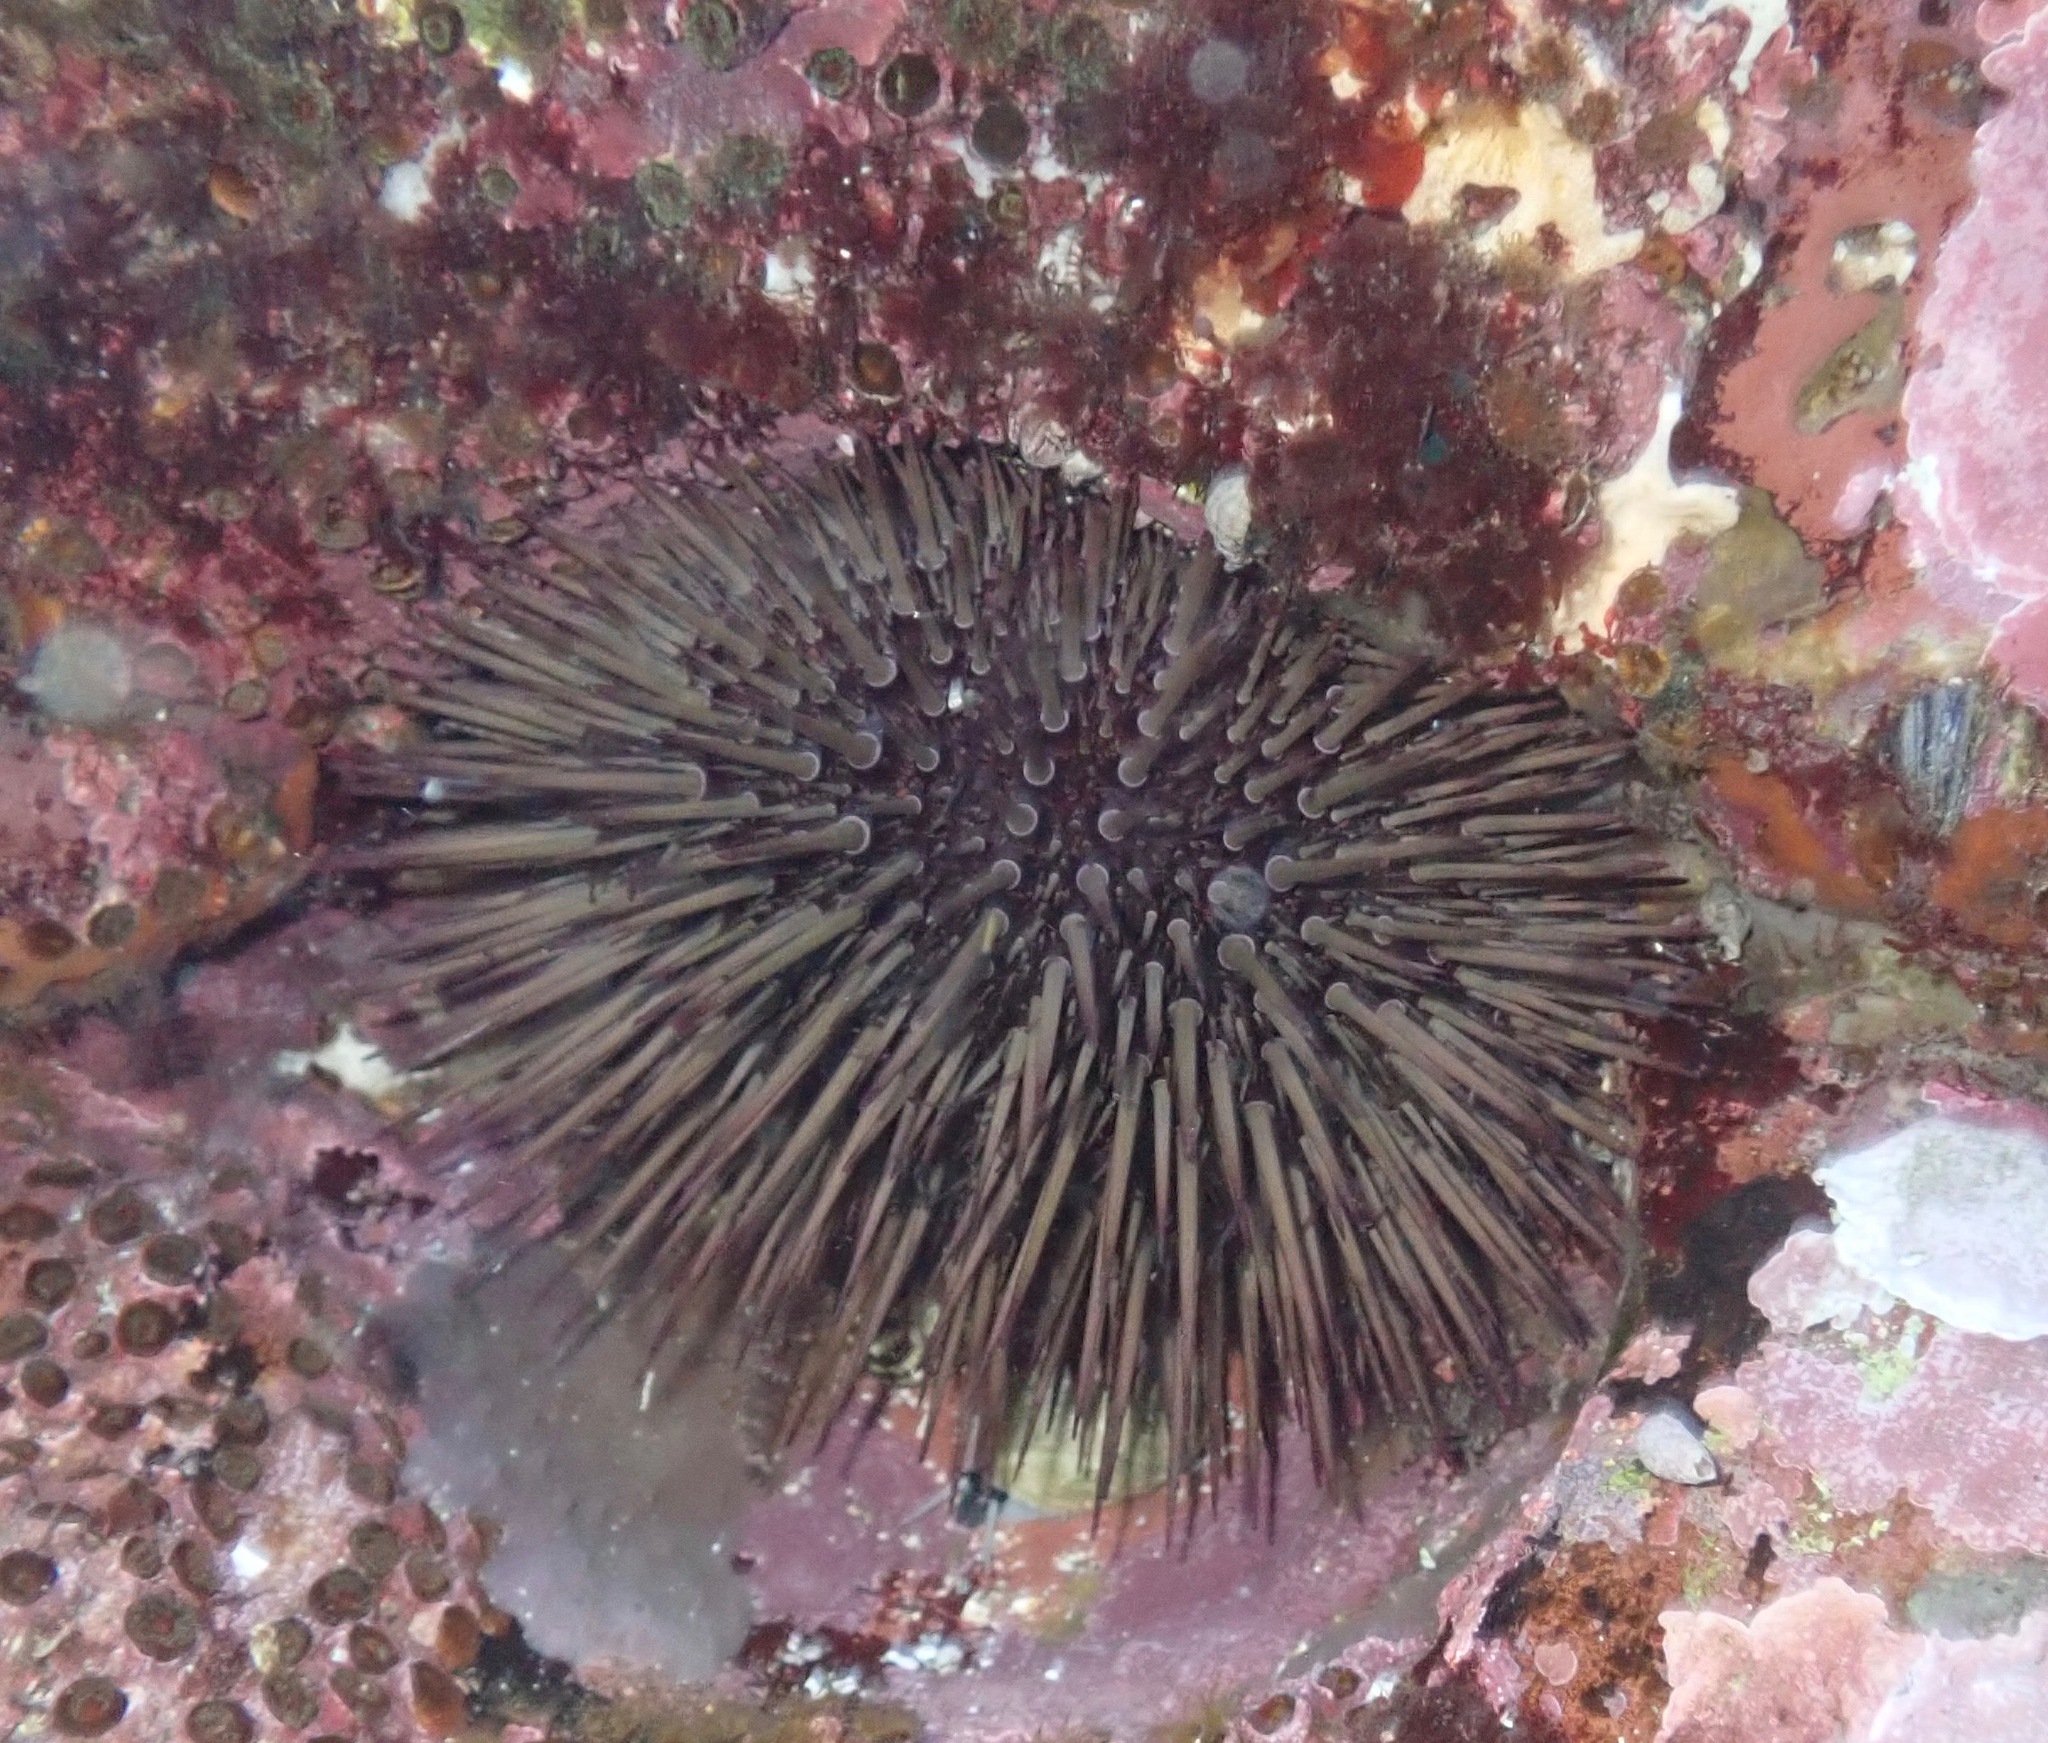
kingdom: Animalia
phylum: Echinodermata
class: Echinoidea
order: Camarodonta
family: Echinometridae
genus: Heliocidaris
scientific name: Heliocidaris erythrogramma
